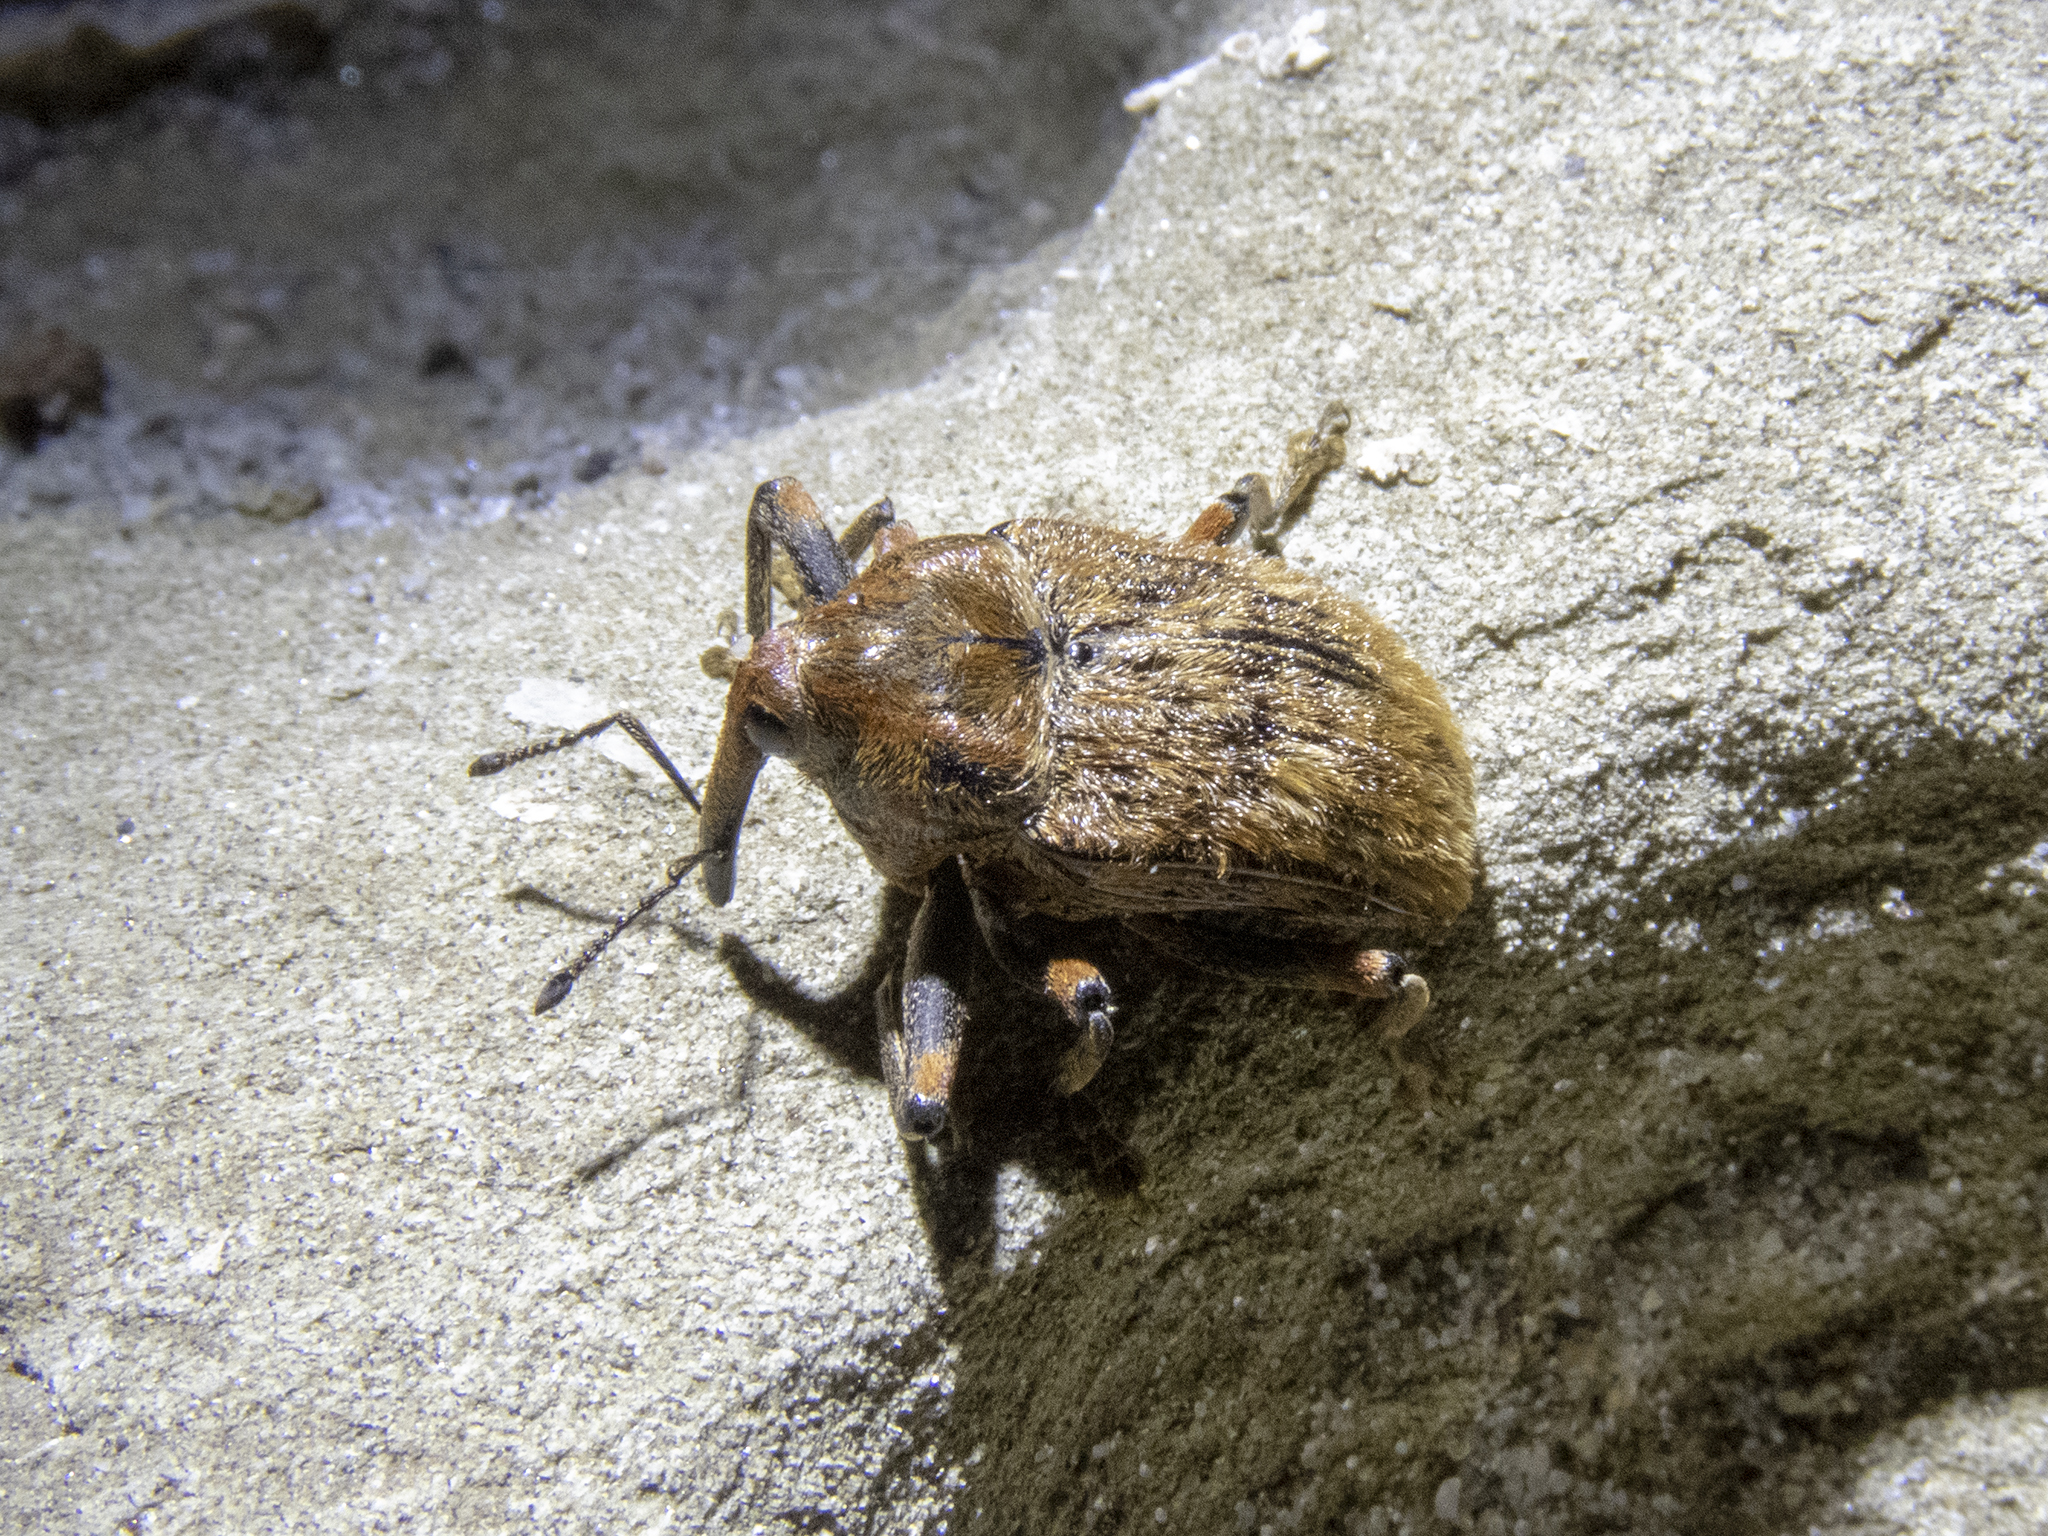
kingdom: Animalia
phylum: Arthropoda
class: Insecta
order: Coleoptera
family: Curculionidae
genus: Rhynchodes
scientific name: Rhynchodes ursus
